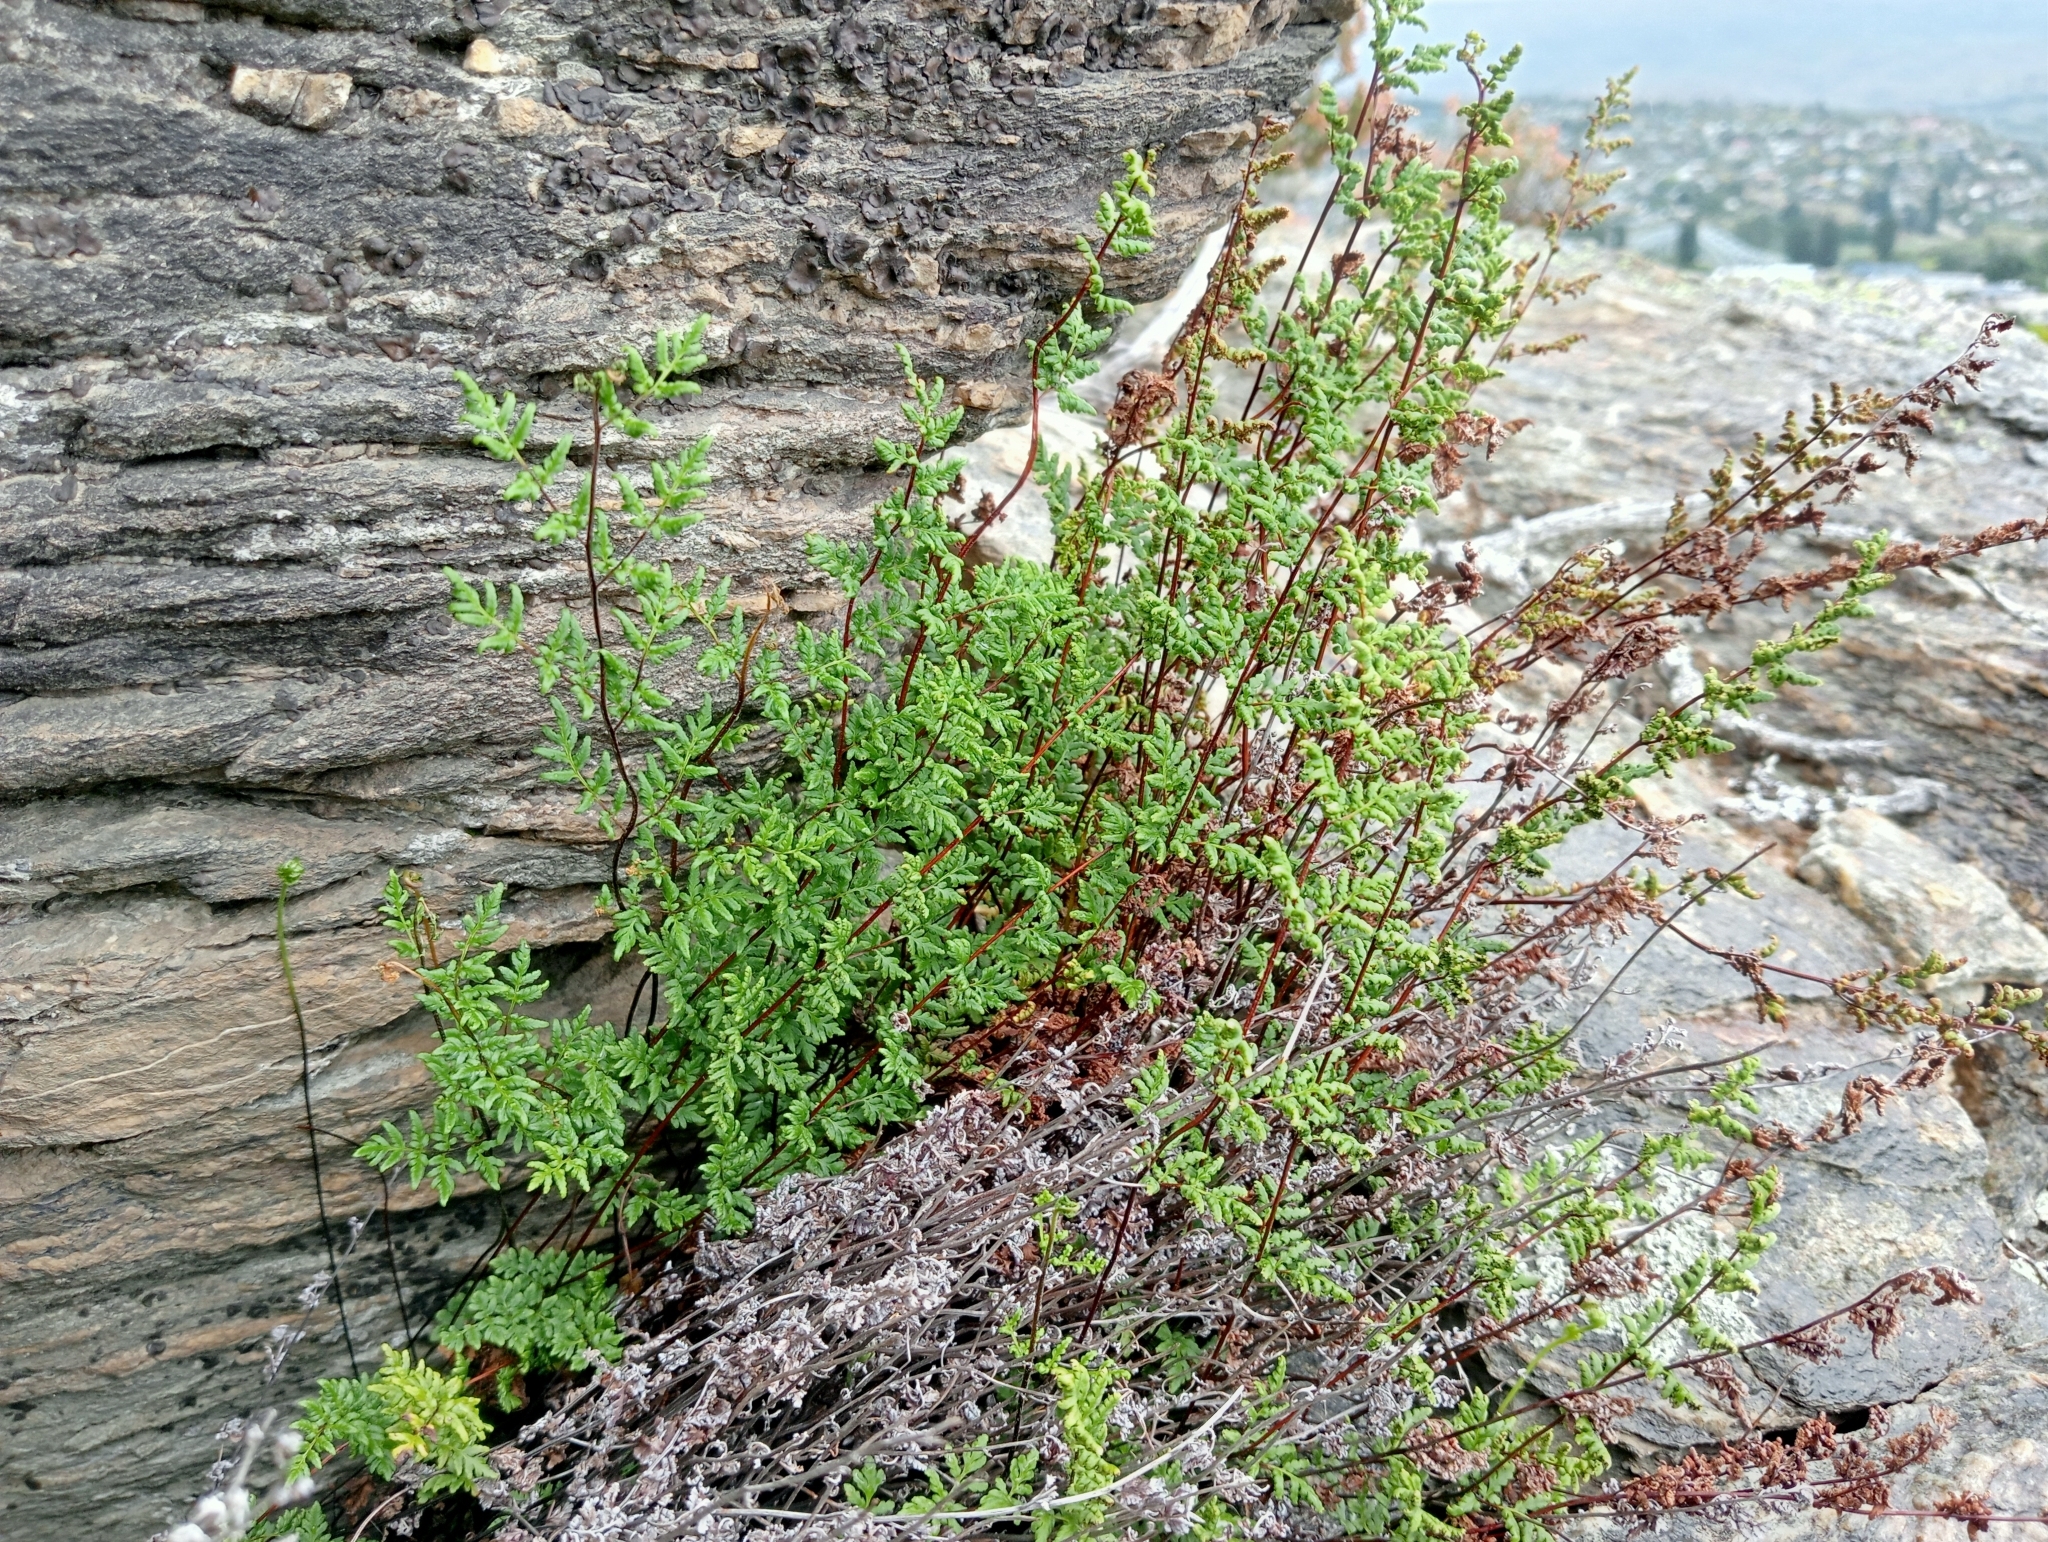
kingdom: Plantae
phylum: Tracheophyta
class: Polypodiopsida
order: Polypodiales
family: Pteridaceae
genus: Cheilanthes
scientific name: Cheilanthes sieberi
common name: Mulga fern
